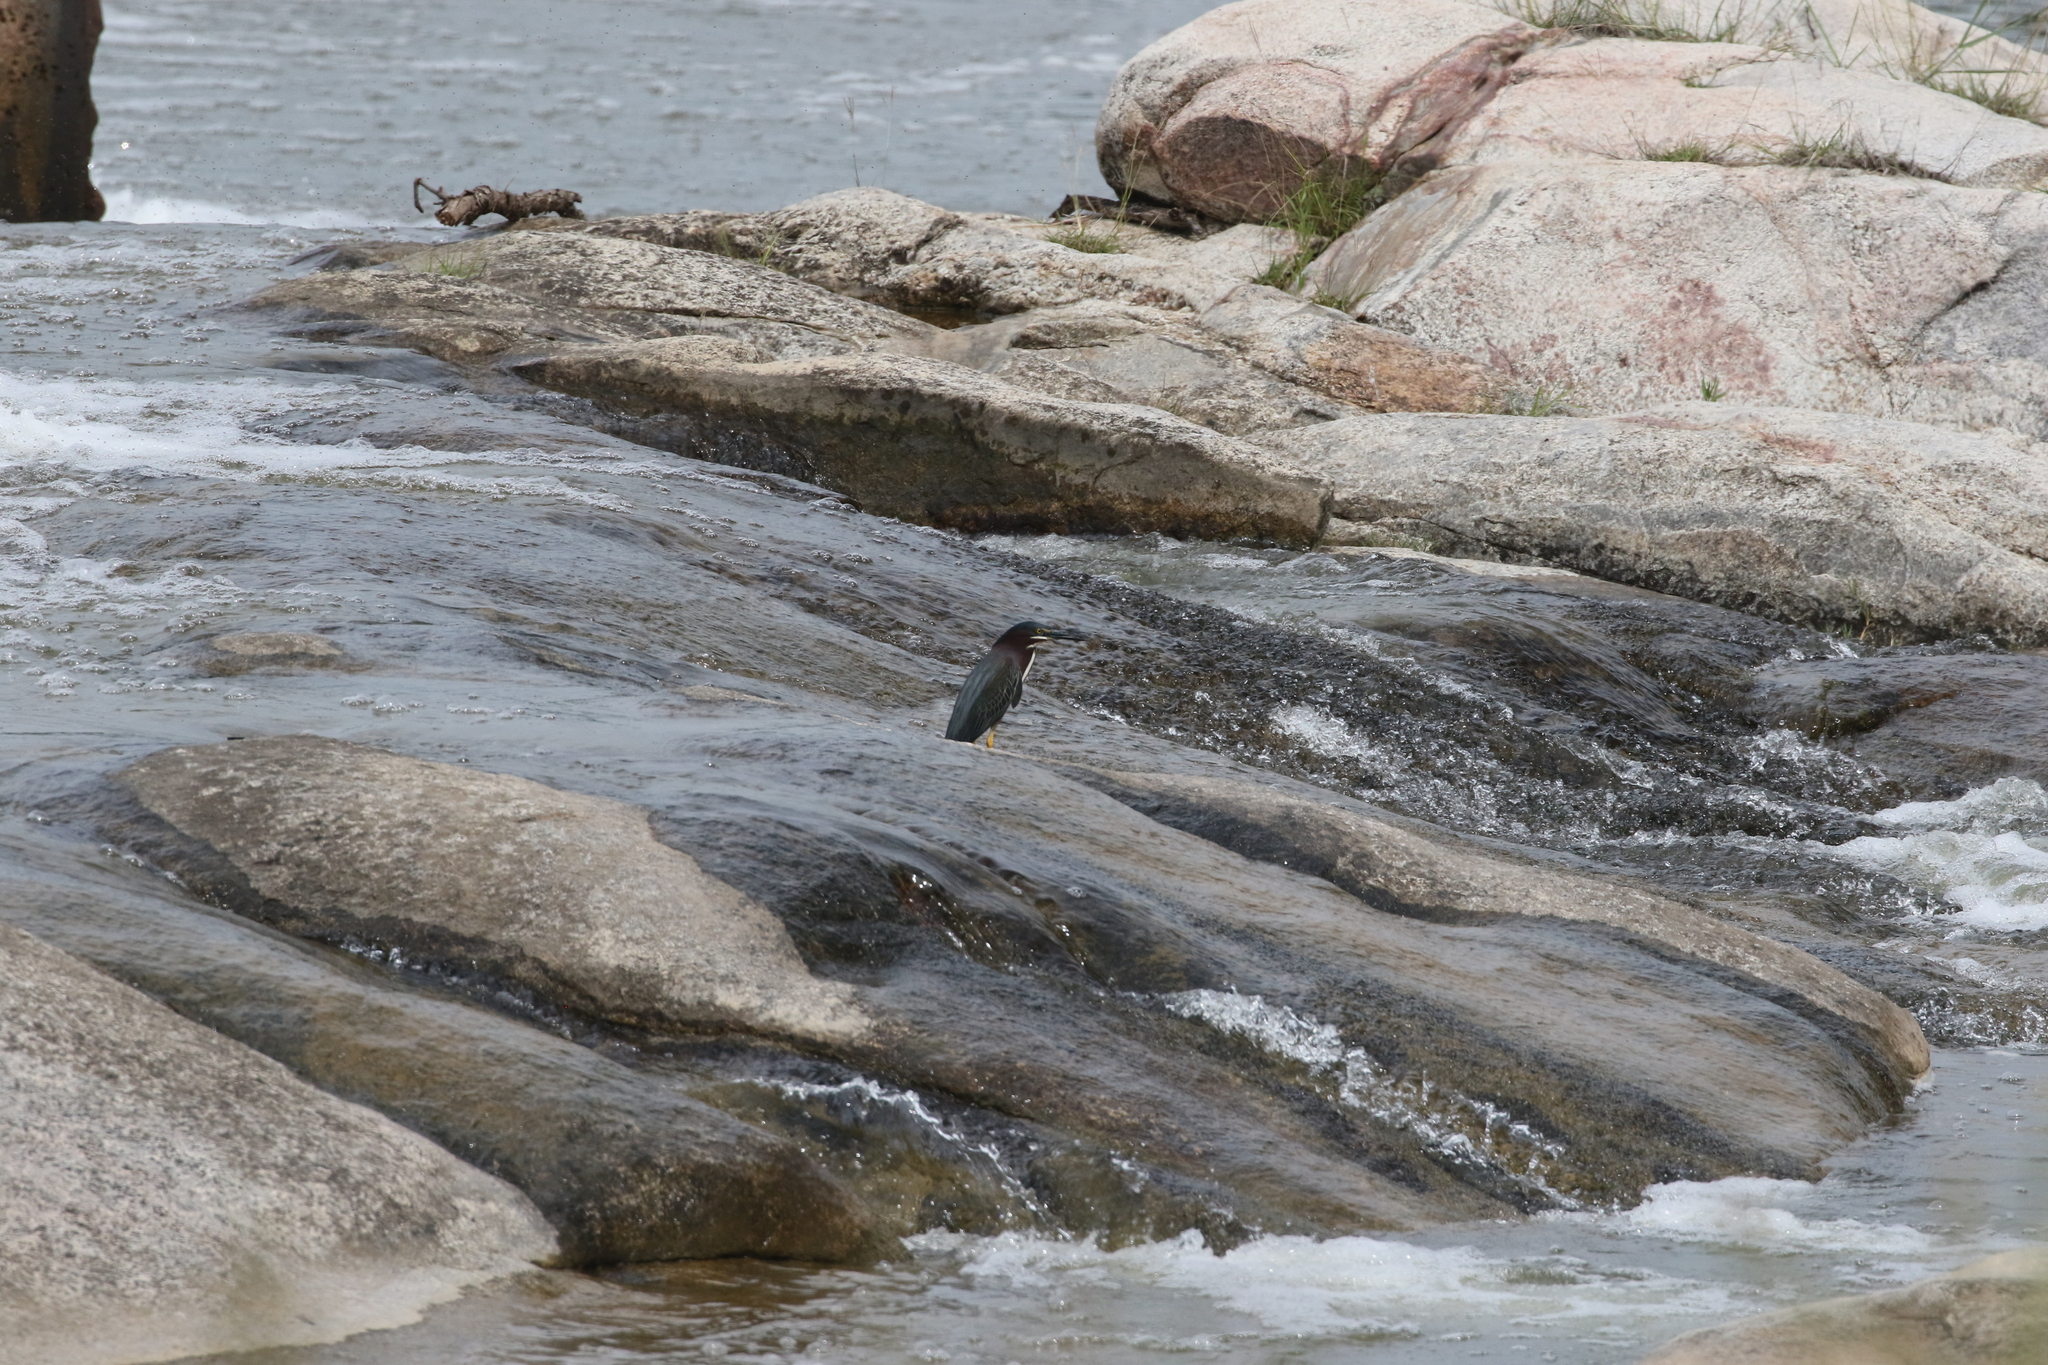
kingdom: Animalia
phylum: Chordata
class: Aves
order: Pelecaniformes
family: Ardeidae
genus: Butorides
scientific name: Butorides virescens
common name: Green heron
